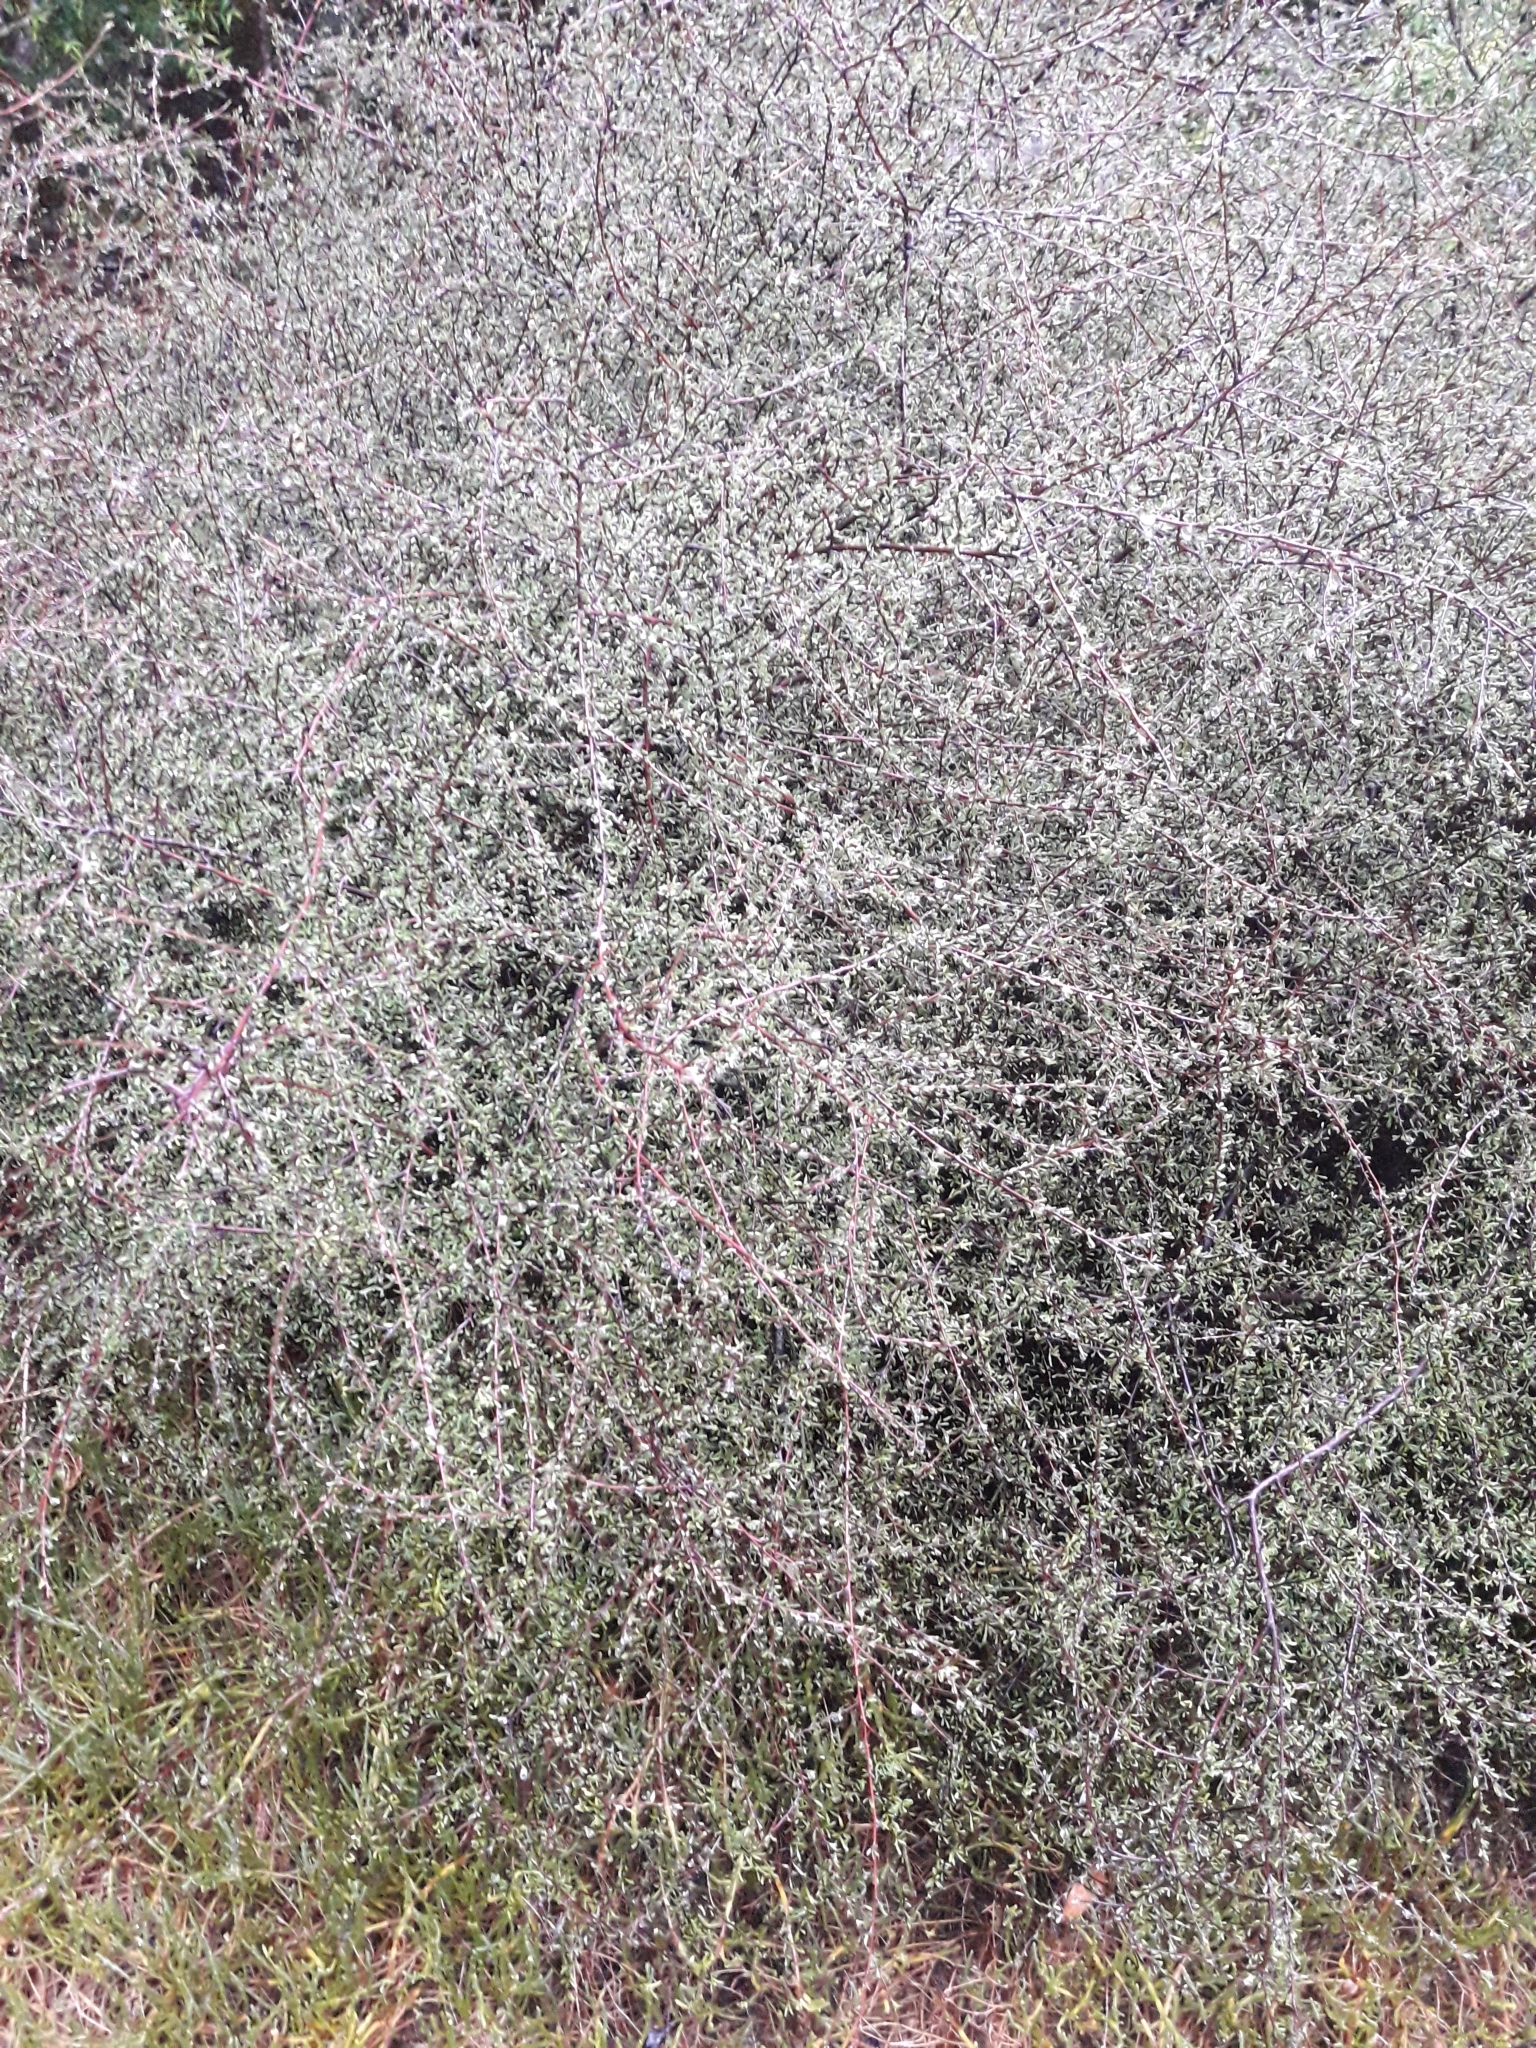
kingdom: Plantae
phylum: Tracheophyta
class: Magnoliopsida
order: Malvales
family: Malvaceae
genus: Plagianthus
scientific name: Plagianthus divaricatus
